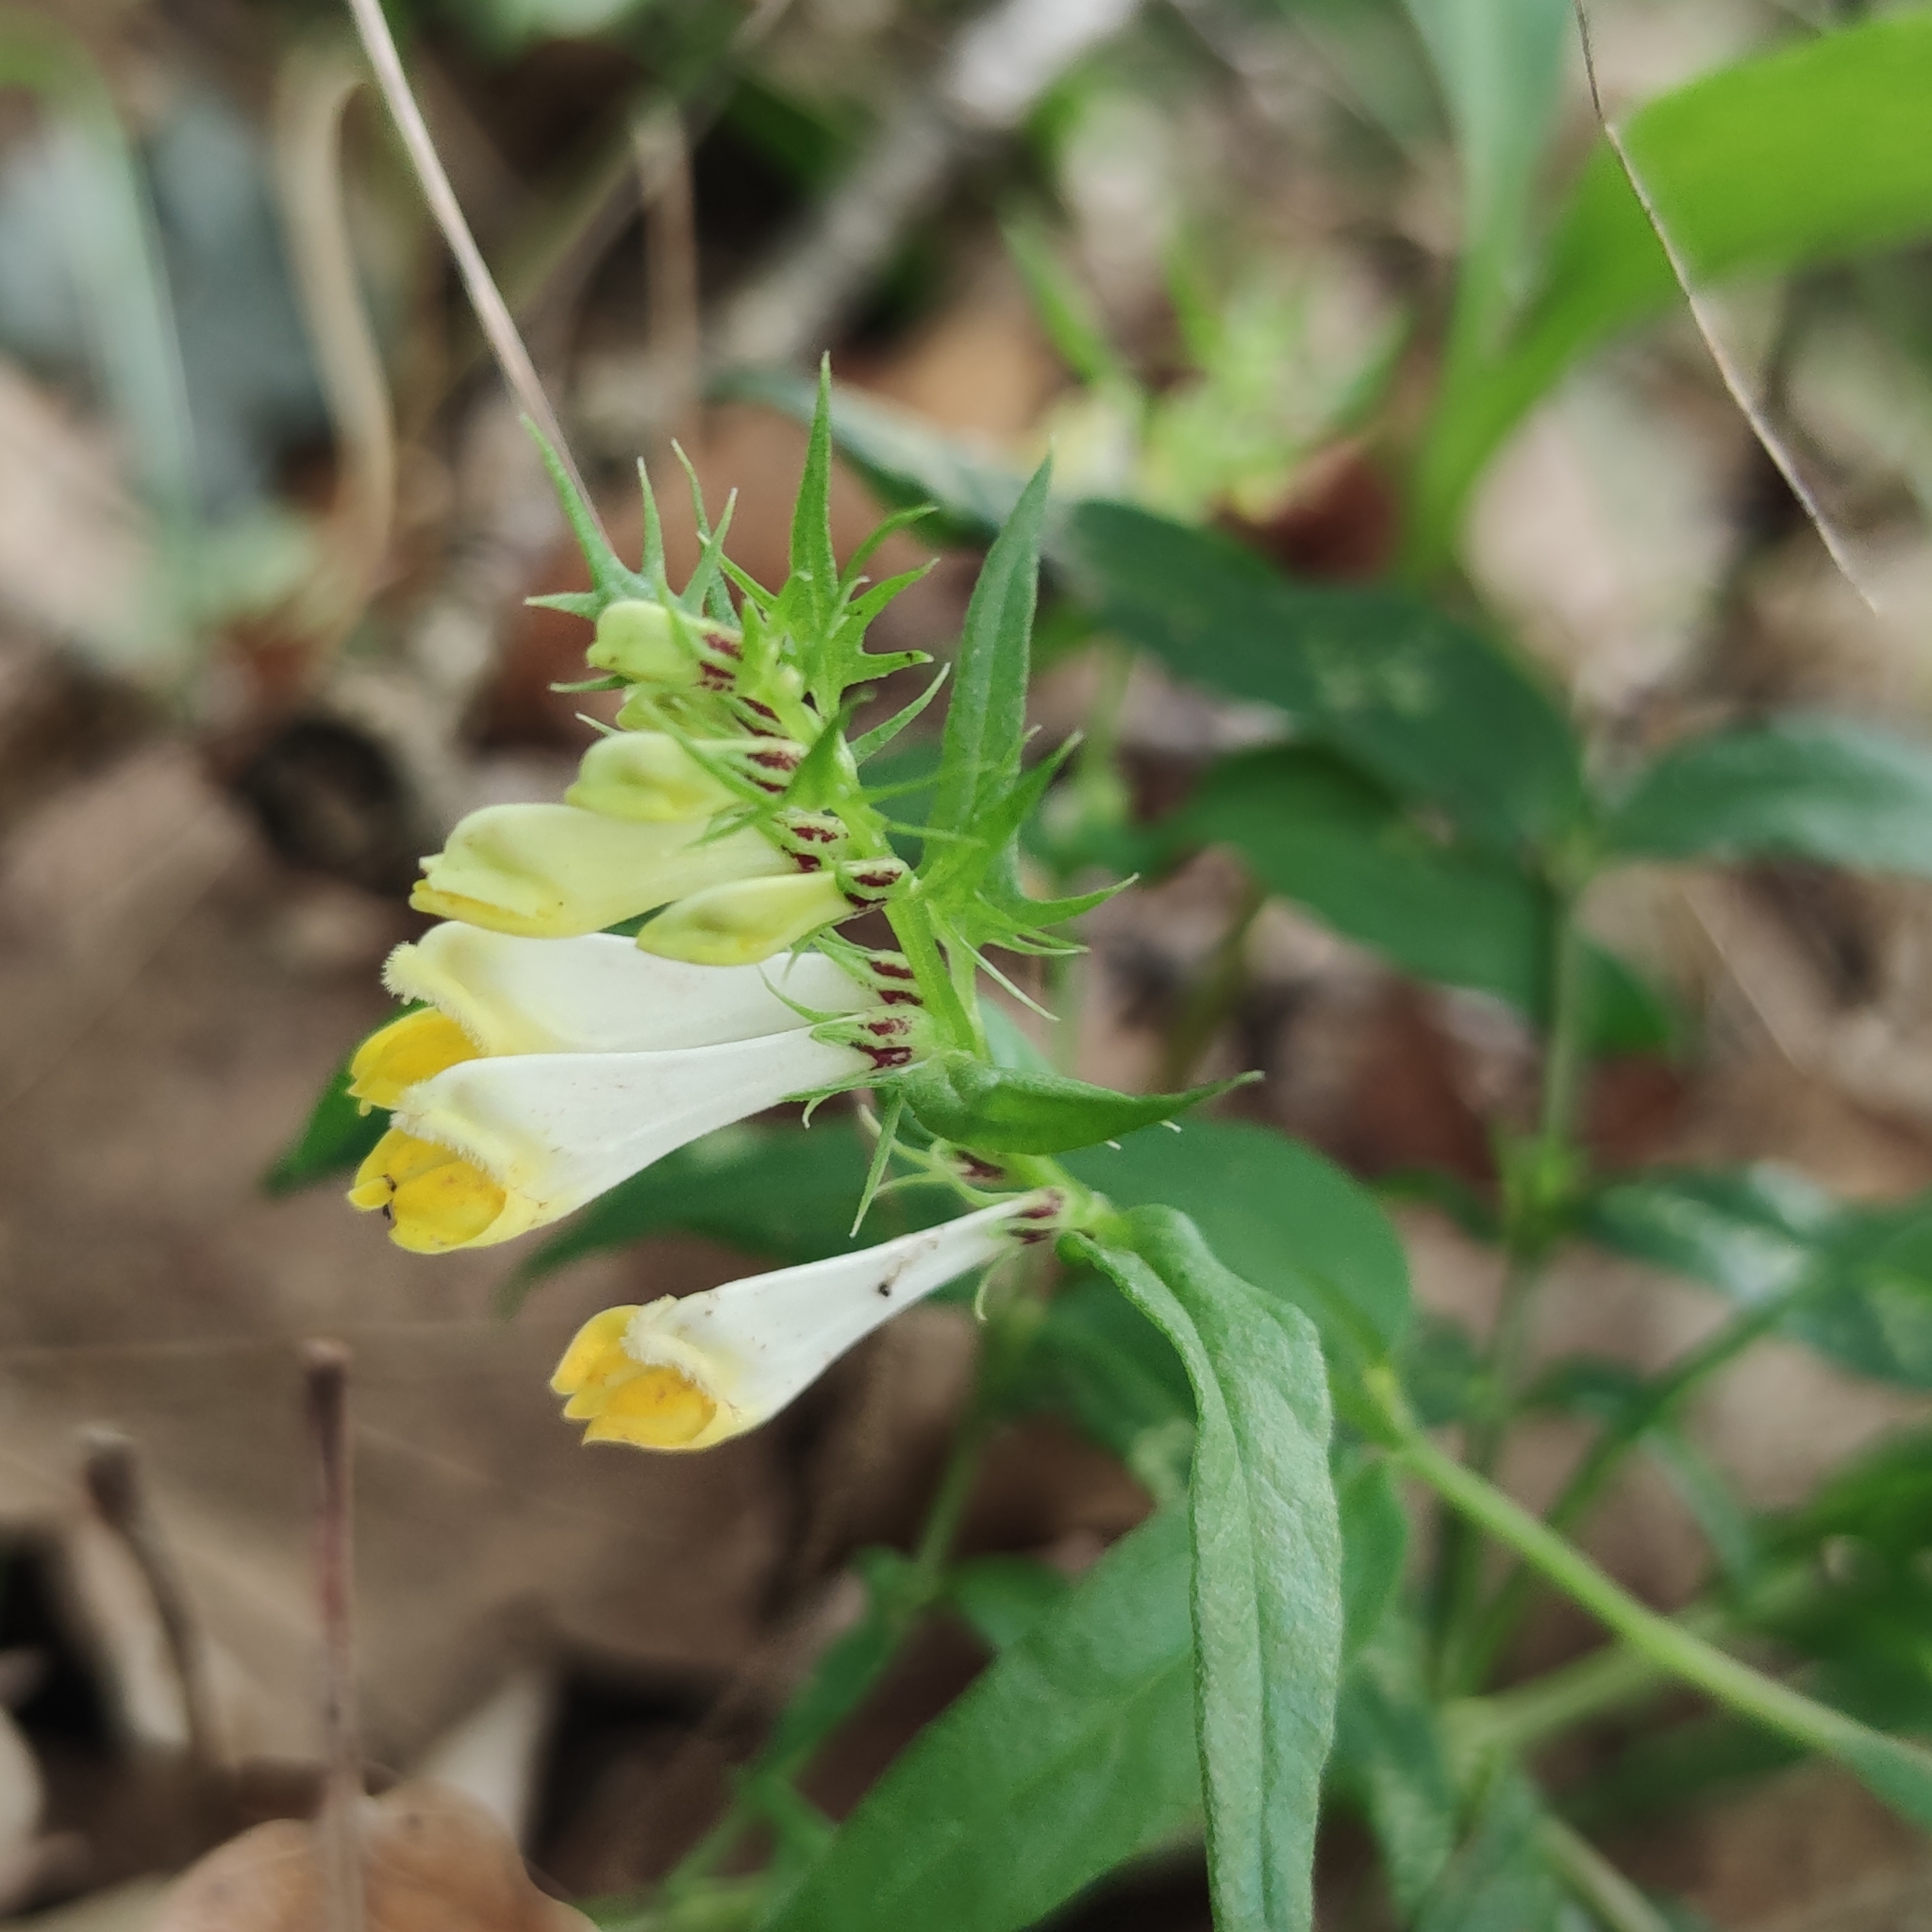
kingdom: Plantae
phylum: Tracheophyta
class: Magnoliopsida
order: Lamiales
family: Orobanchaceae
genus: Melampyrum
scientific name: Melampyrum pratense
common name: Common cow-wheat
